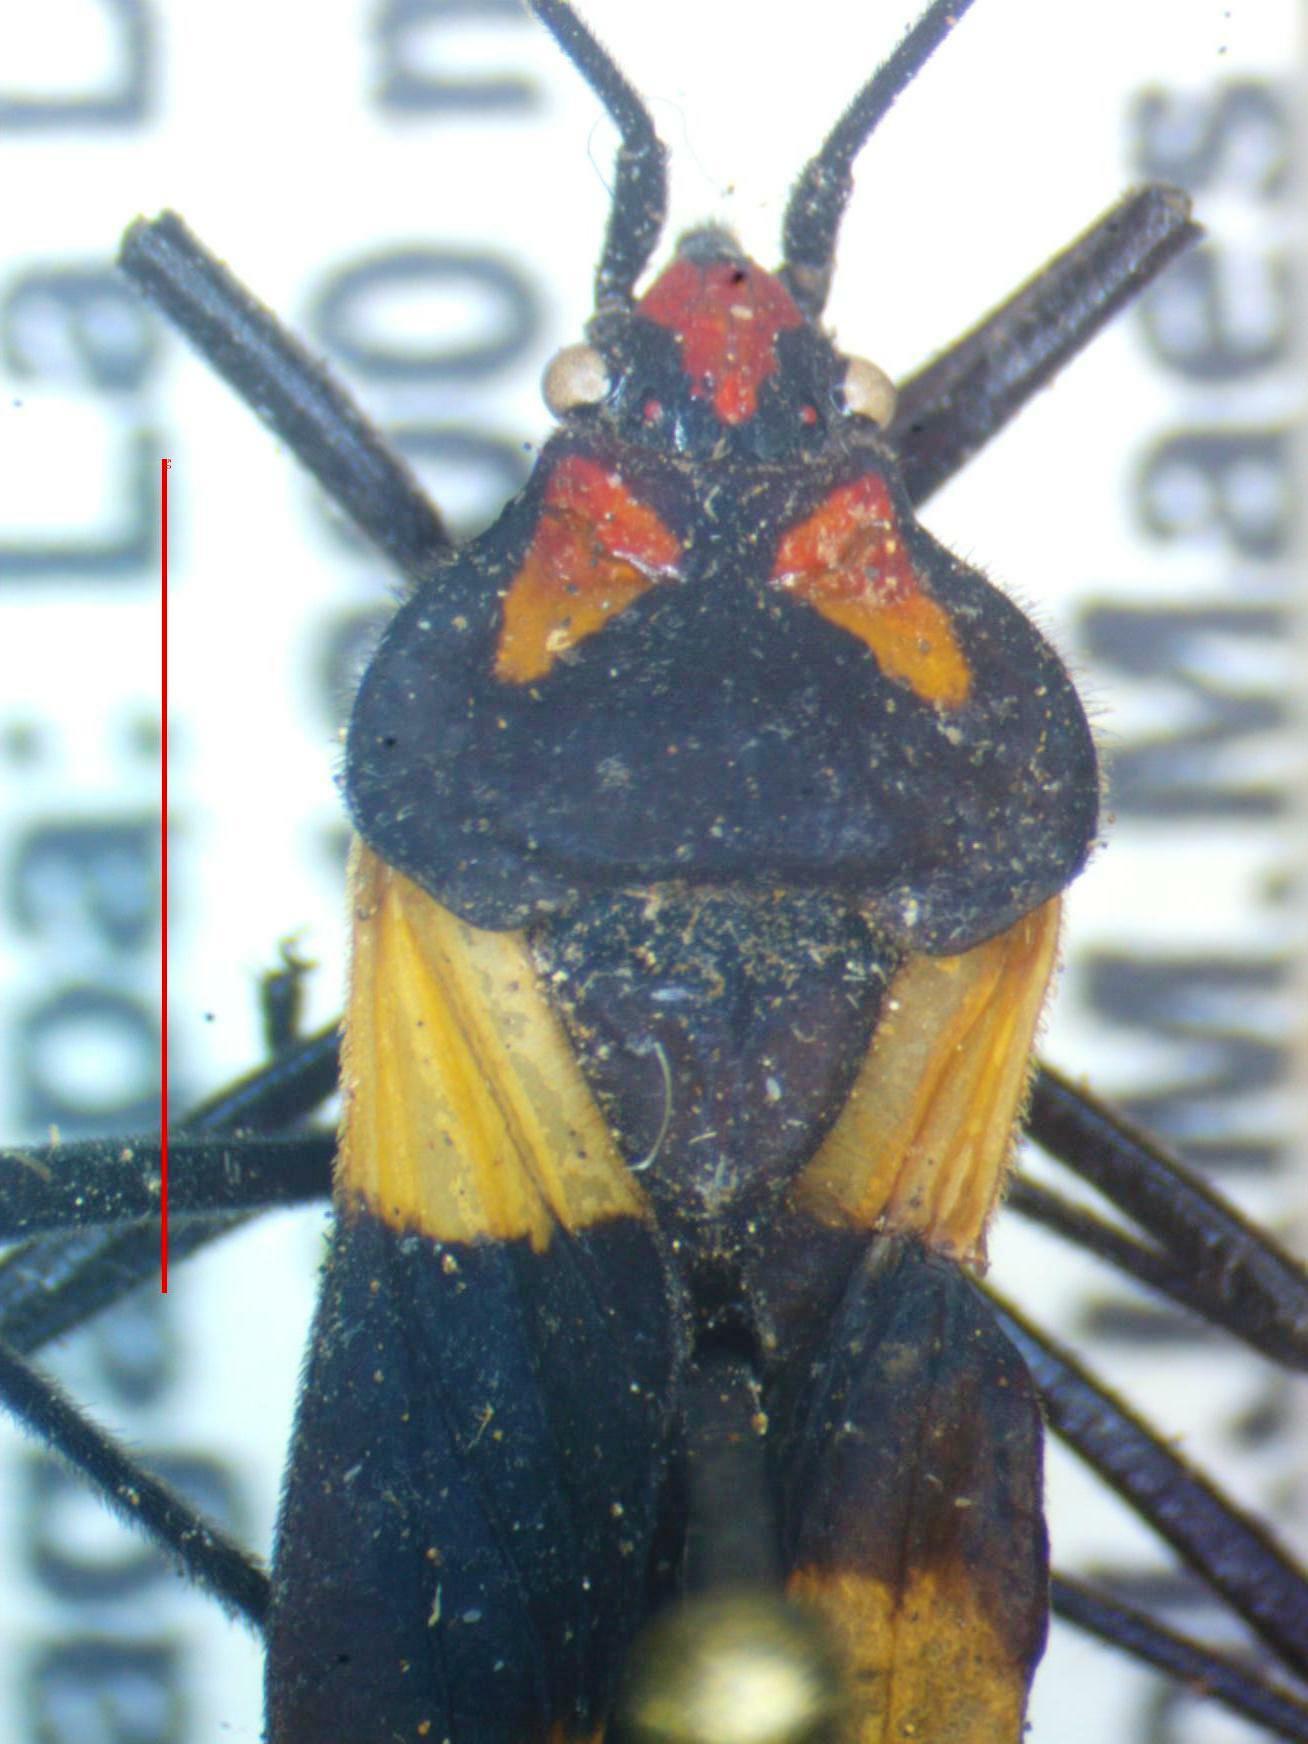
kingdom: Animalia
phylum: Arthropoda
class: Insecta
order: Hemiptera
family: Lygaeidae
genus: Oncopeltus
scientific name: Oncopeltus varicolor
